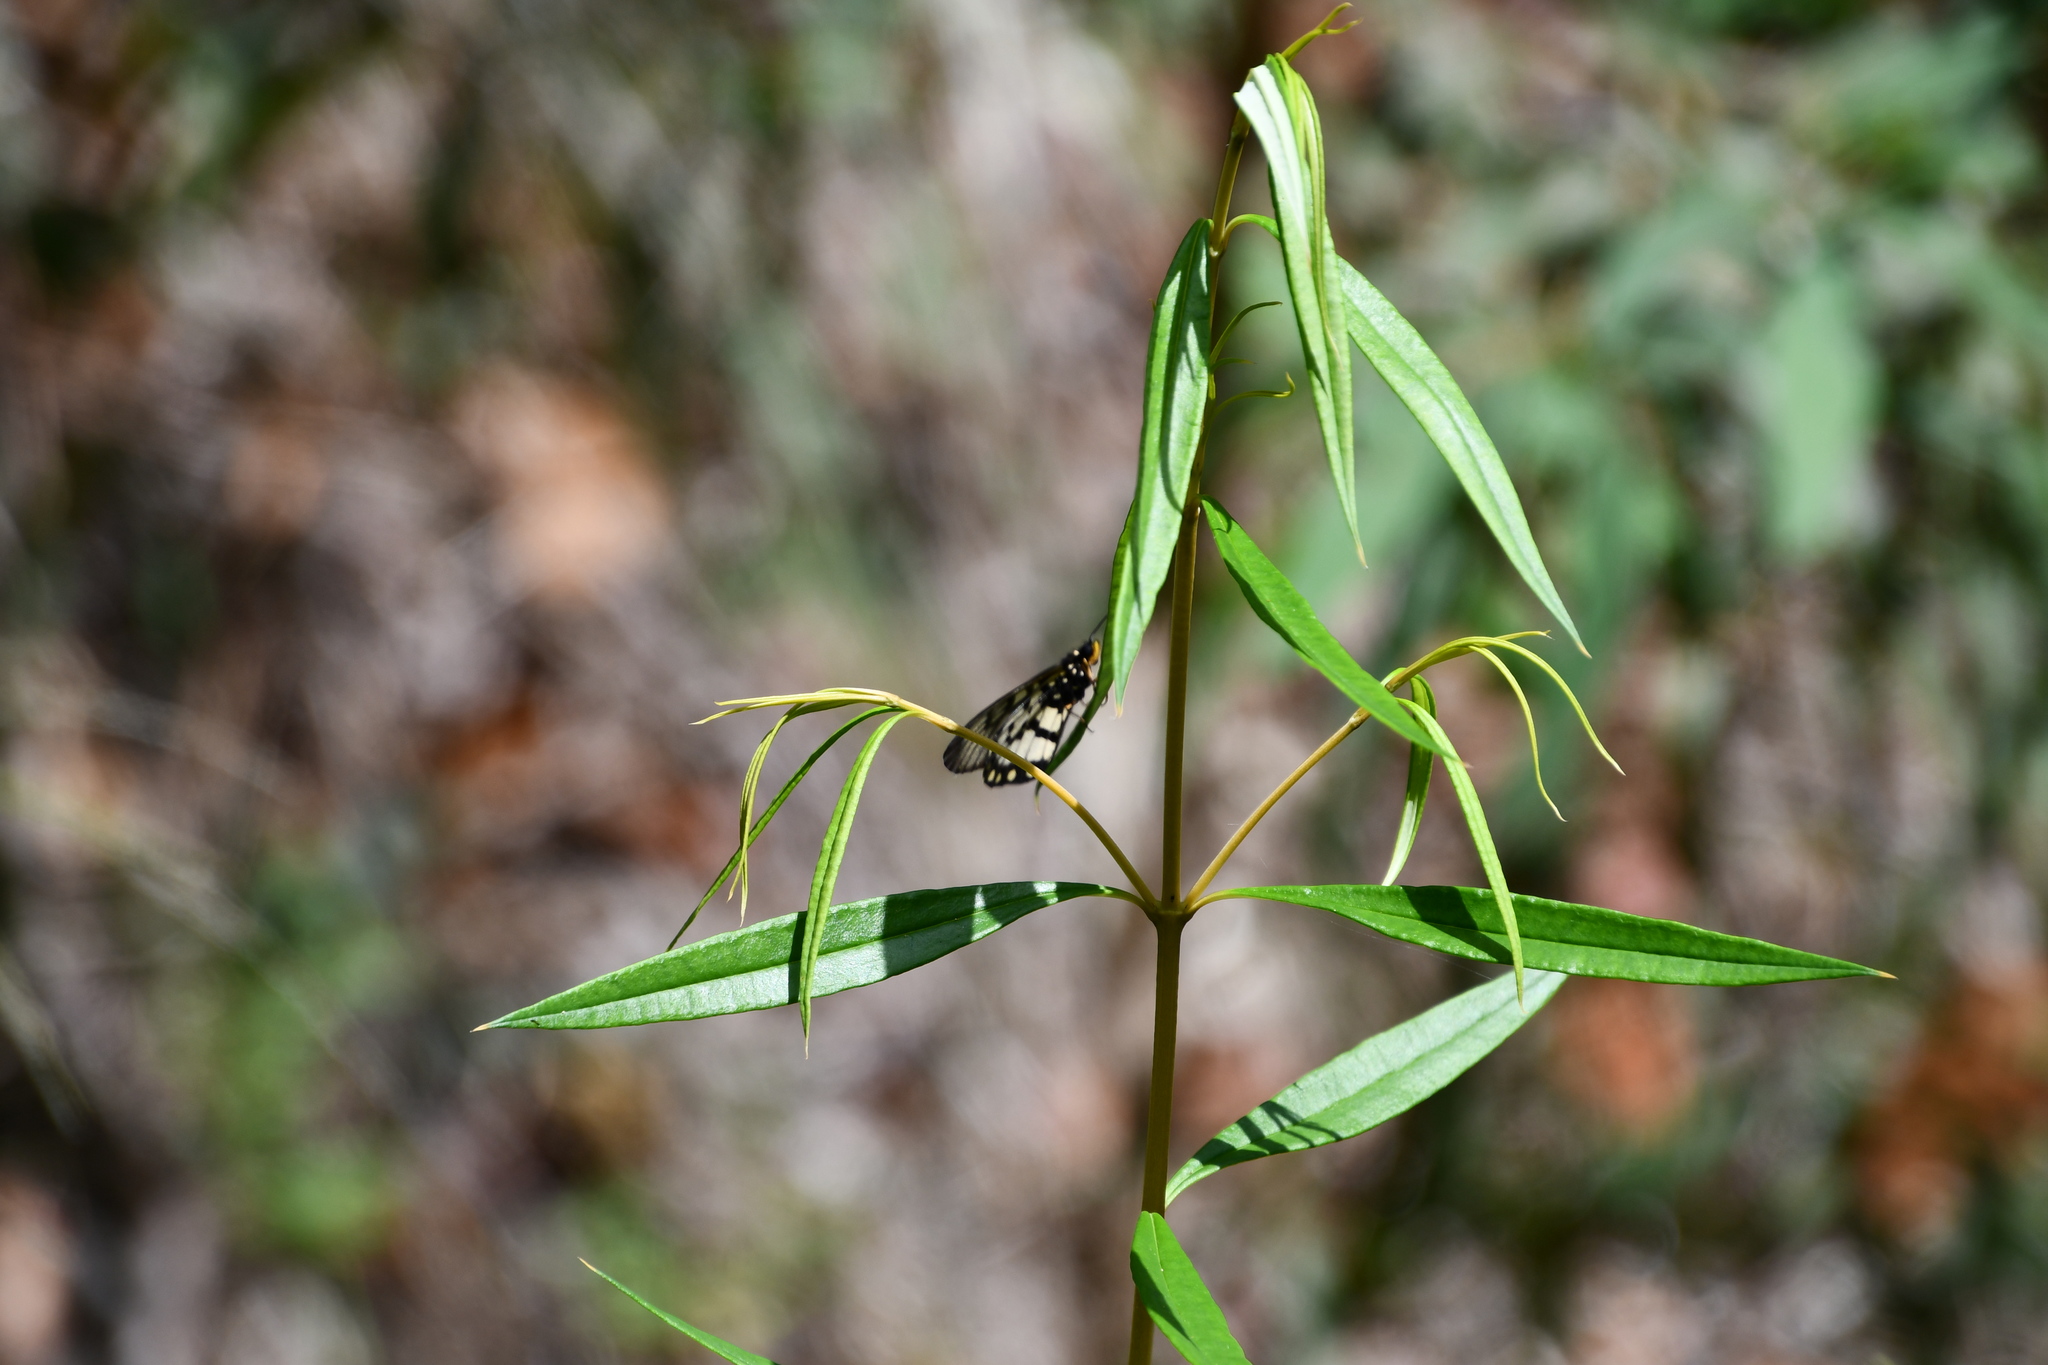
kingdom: Animalia
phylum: Arthropoda
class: Insecta
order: Lepidoptera
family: Nymphalidae
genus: Acraea
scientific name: Acraea andromacha
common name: Glasswing
